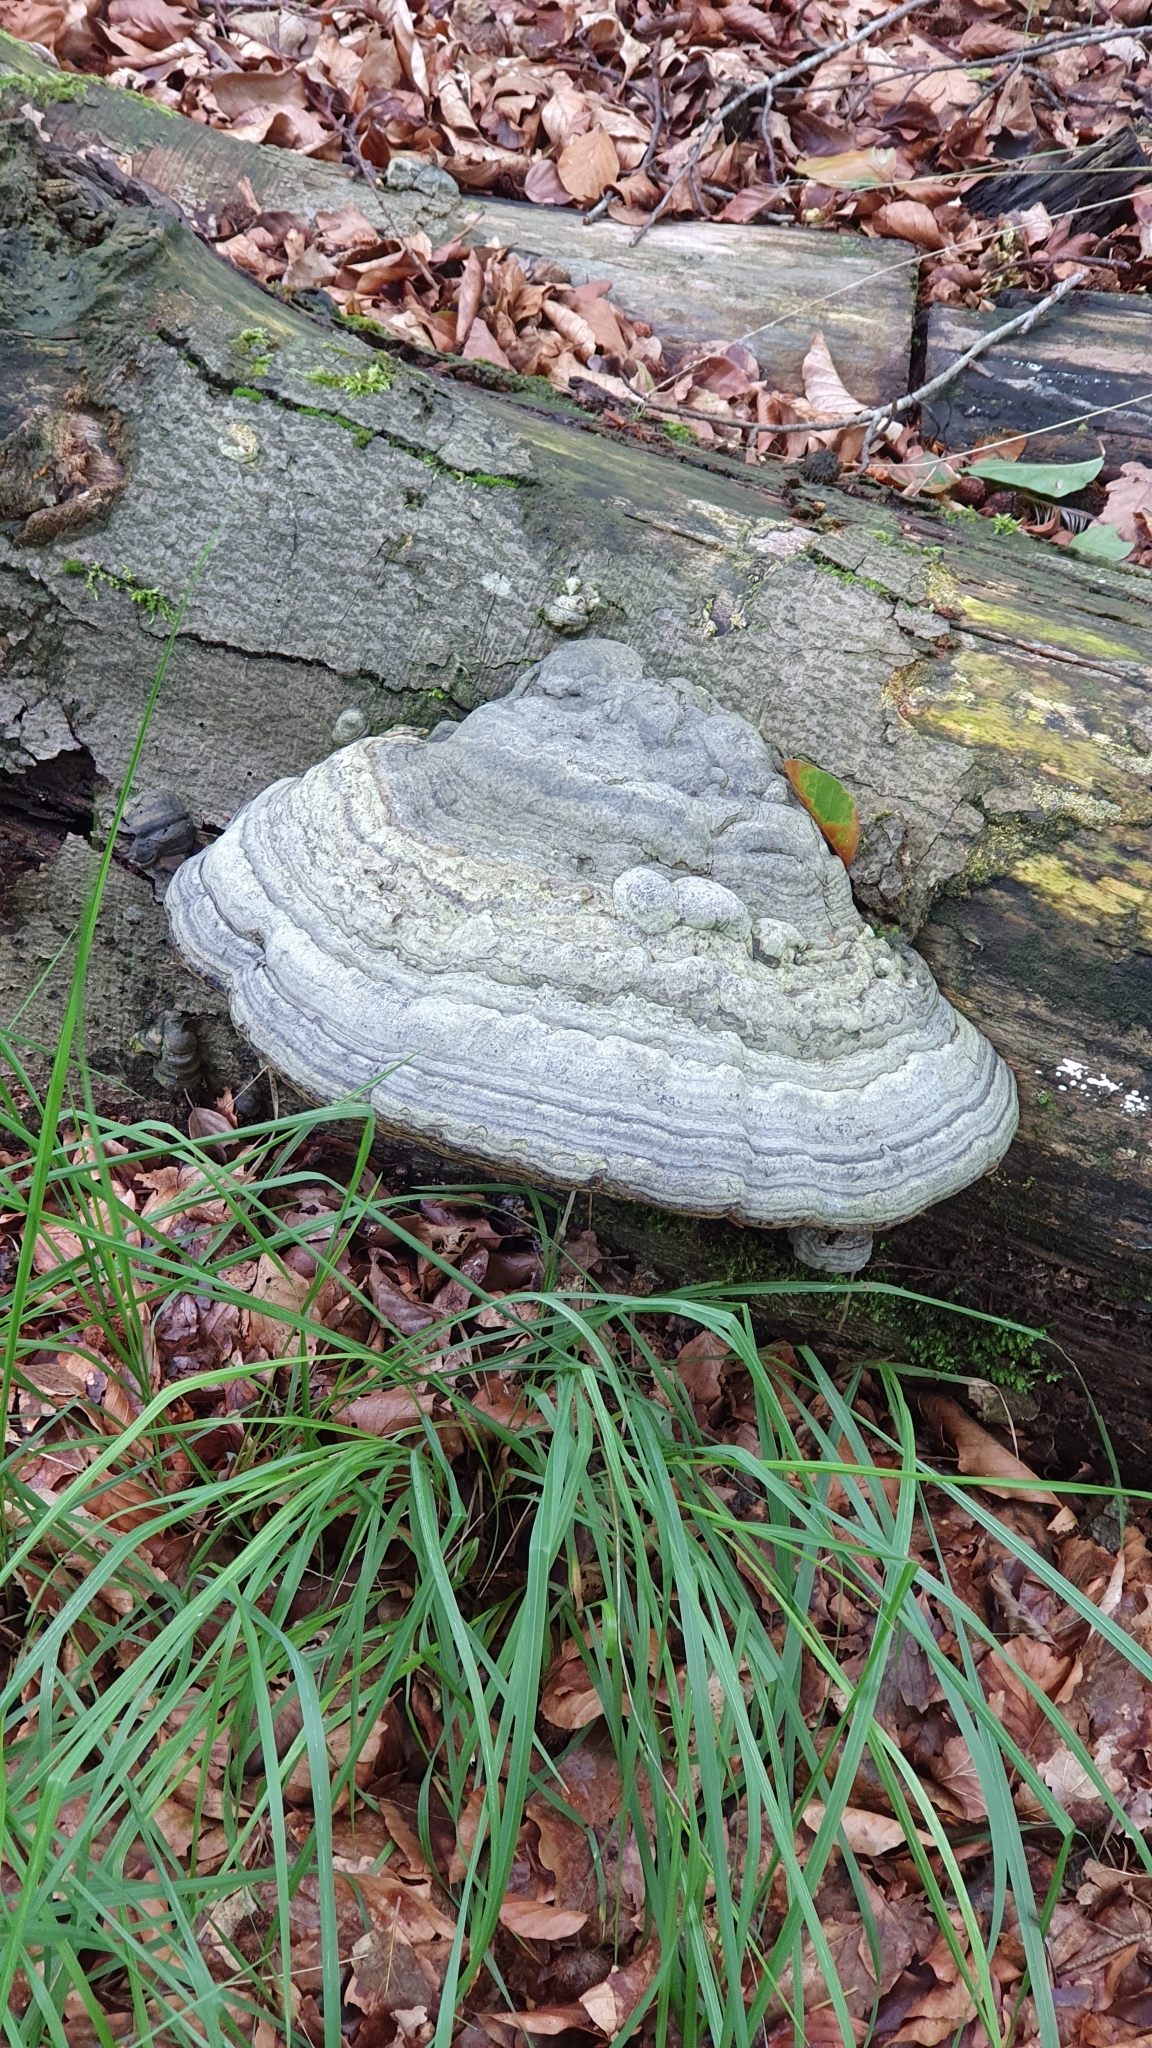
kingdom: Fungi
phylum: Basidiomycota
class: Agaricomycetes
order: Polyporales
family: Polyporaceae
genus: Fomes
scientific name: Fomes fomentarius
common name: Hoof fungus
